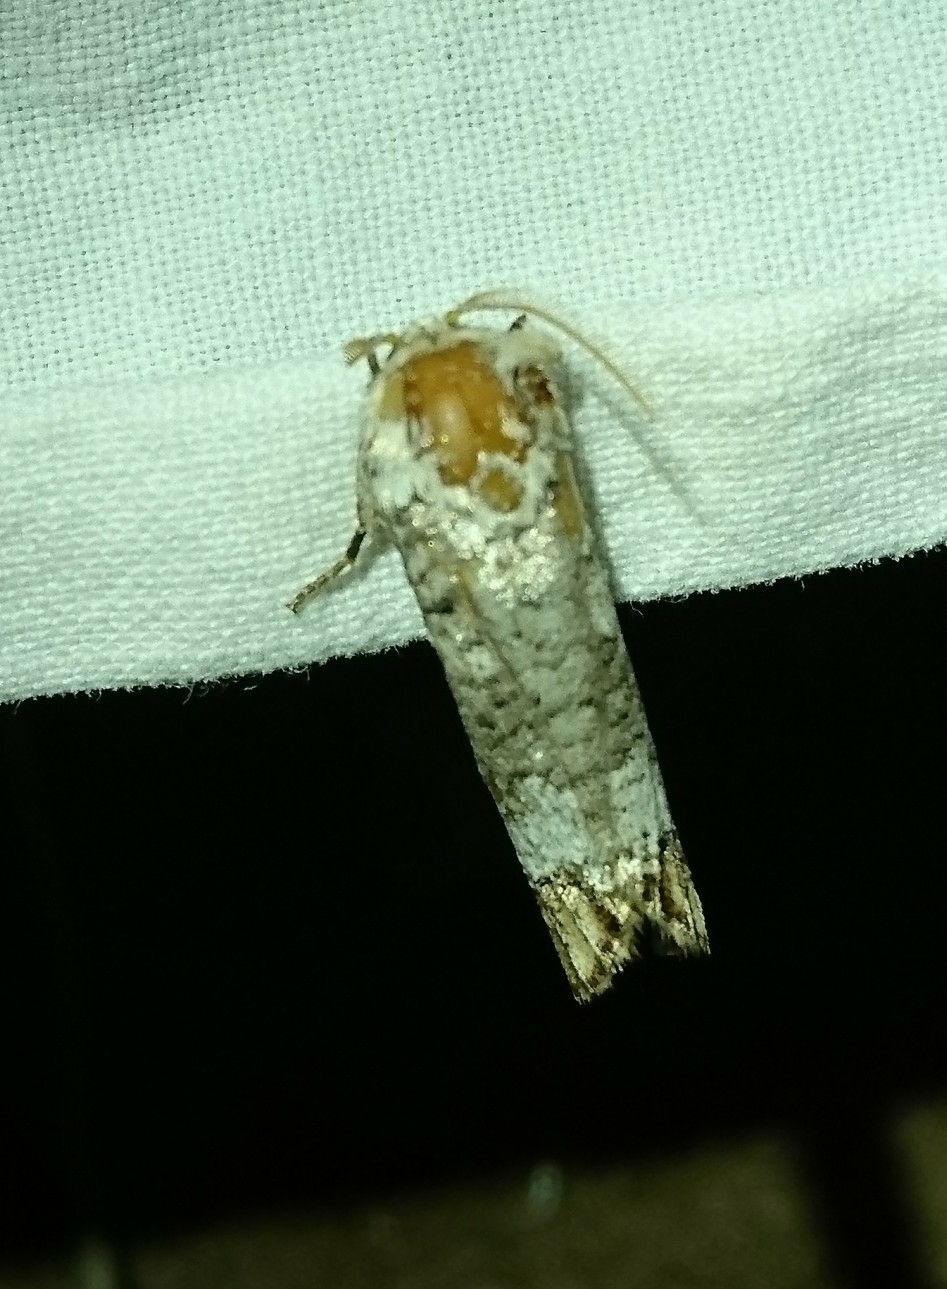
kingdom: Animalia
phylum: Arthropoda
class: Insecta
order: Lepidoptera
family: Cossidae
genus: Cossula
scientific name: Cossula magnifica
